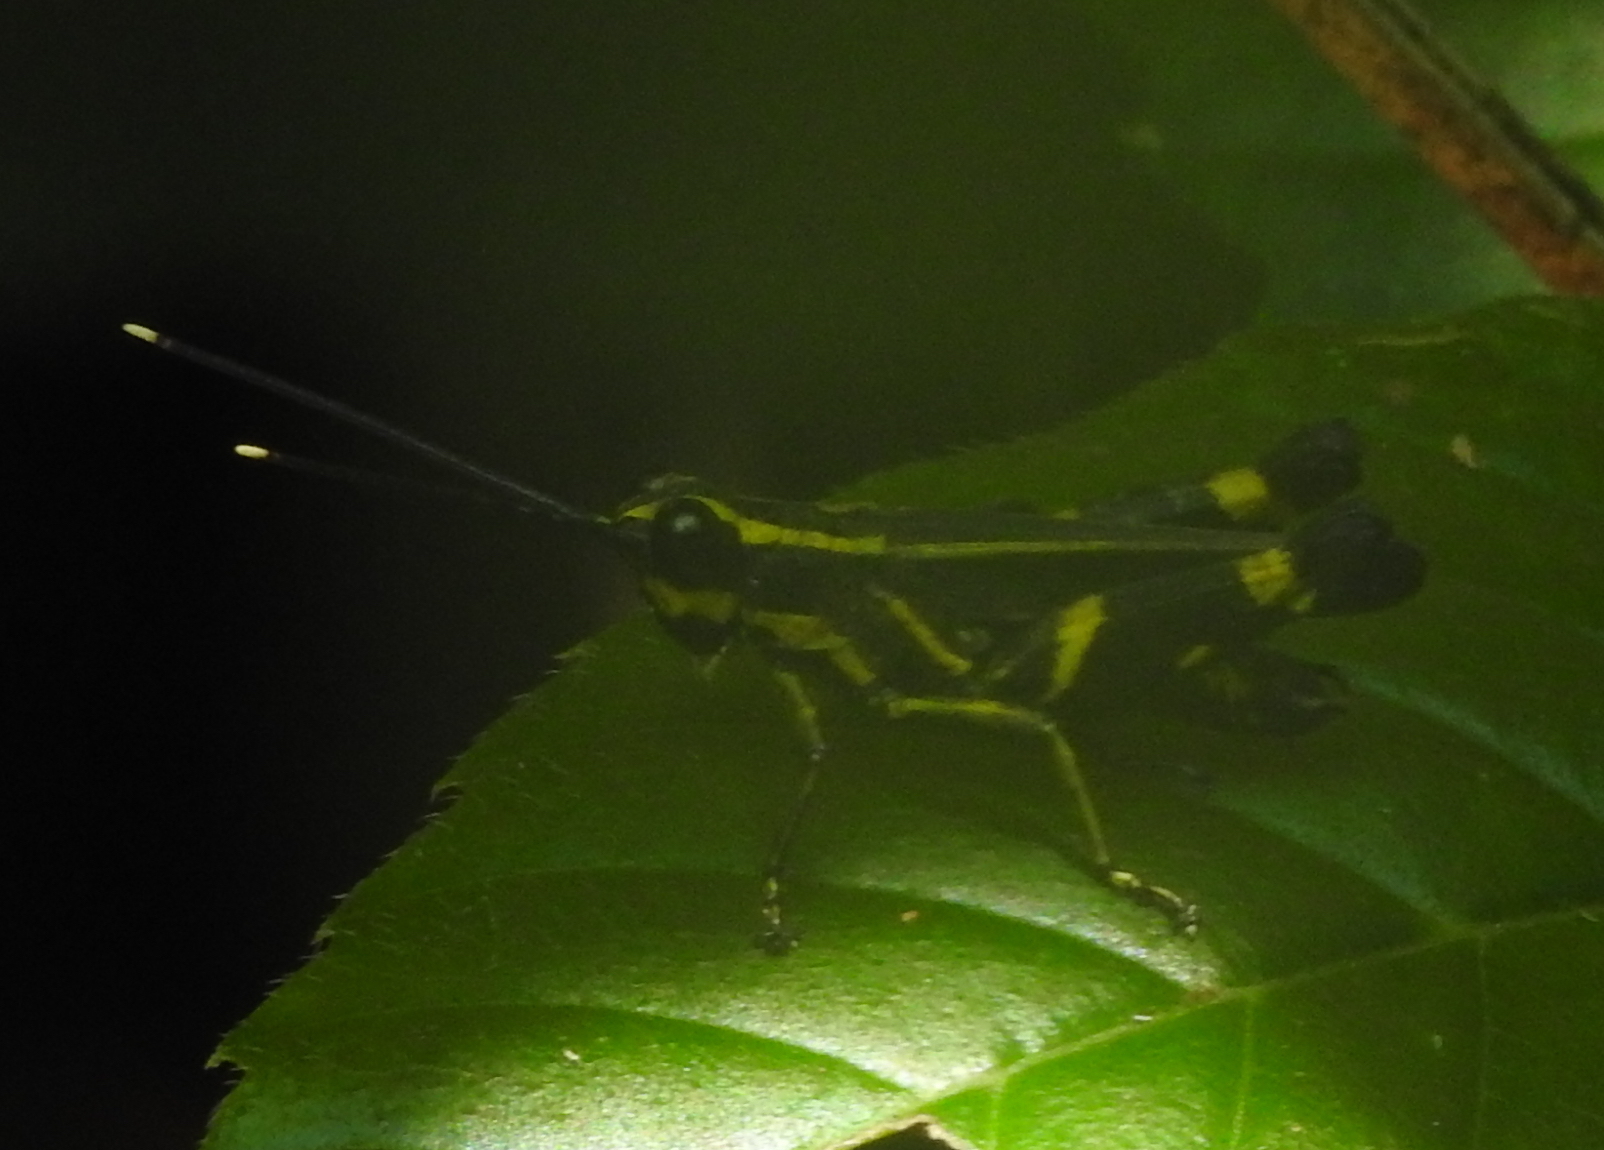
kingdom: Animalia
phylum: Arthropoda
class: Insecta
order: Orthoptera
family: Acrididae
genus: Traulia
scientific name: Traulia azureipennis
